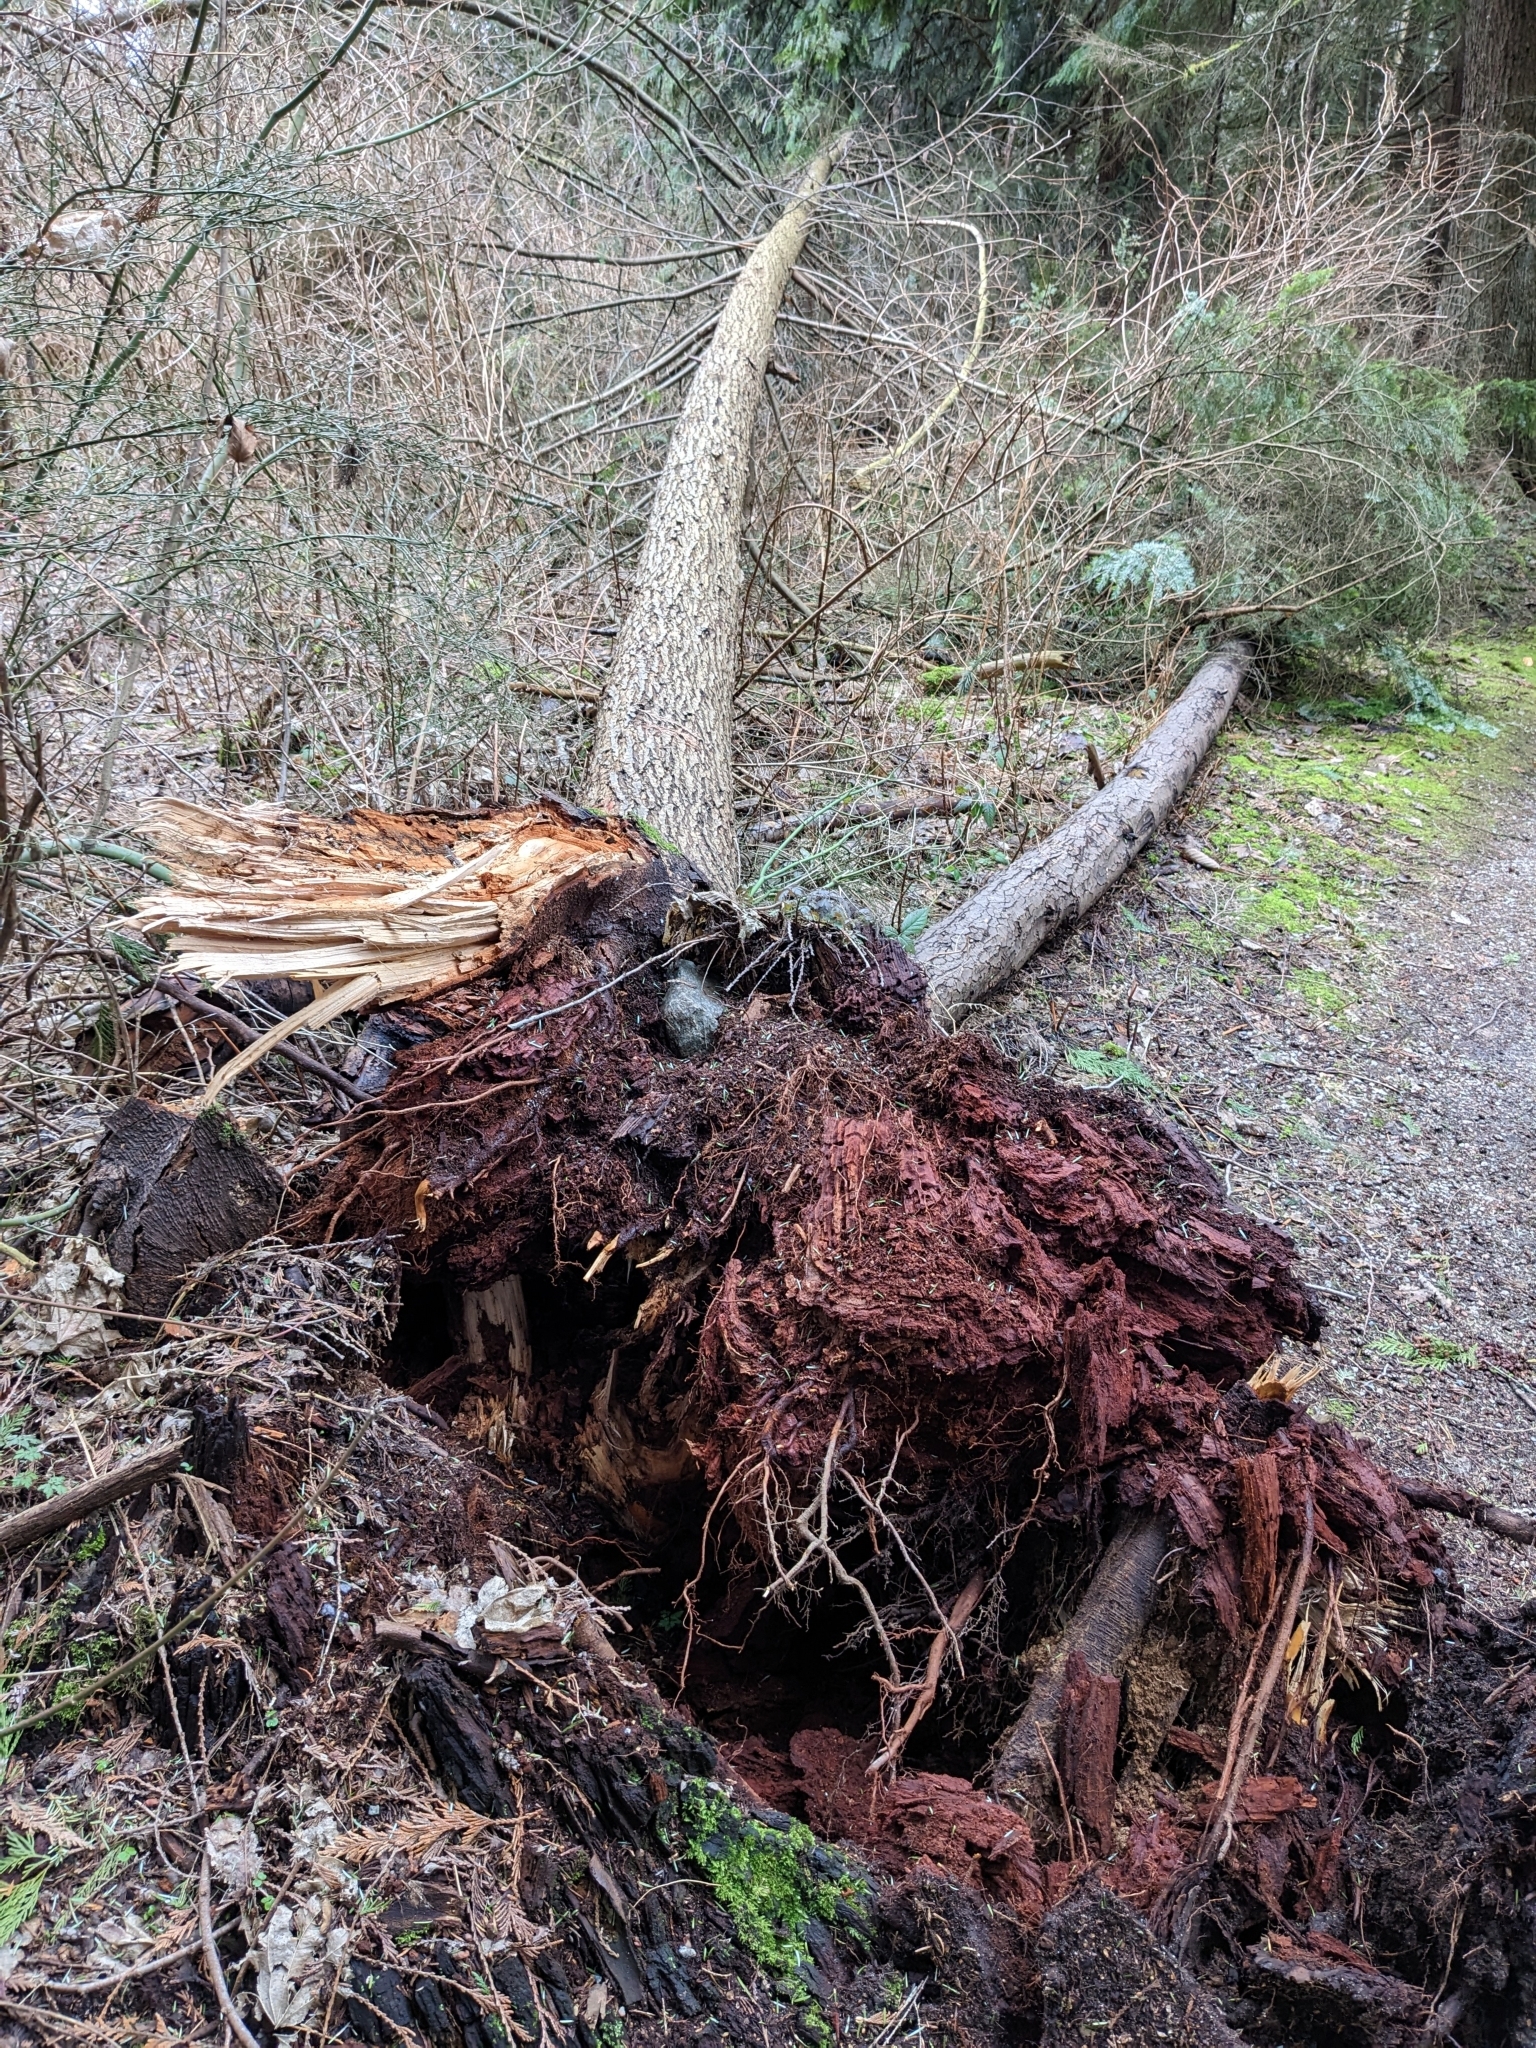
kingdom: Plantae
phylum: Tracheophyta
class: Pinopsida
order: Pinales
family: Pinaceae
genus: Tsuga
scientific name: Tsuga heterophylla
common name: Western hemlock
